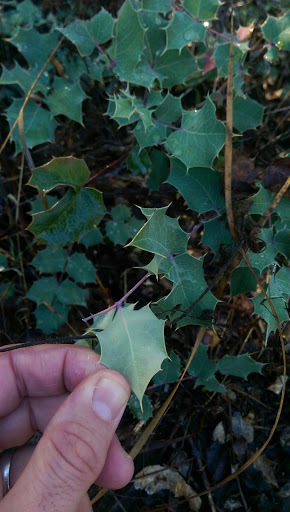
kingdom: Plantae
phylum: Tracheophyta
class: Magnoliopsida
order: Ranunculales
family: Berberidaceae
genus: Mahonia
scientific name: Mahonia dictyota
